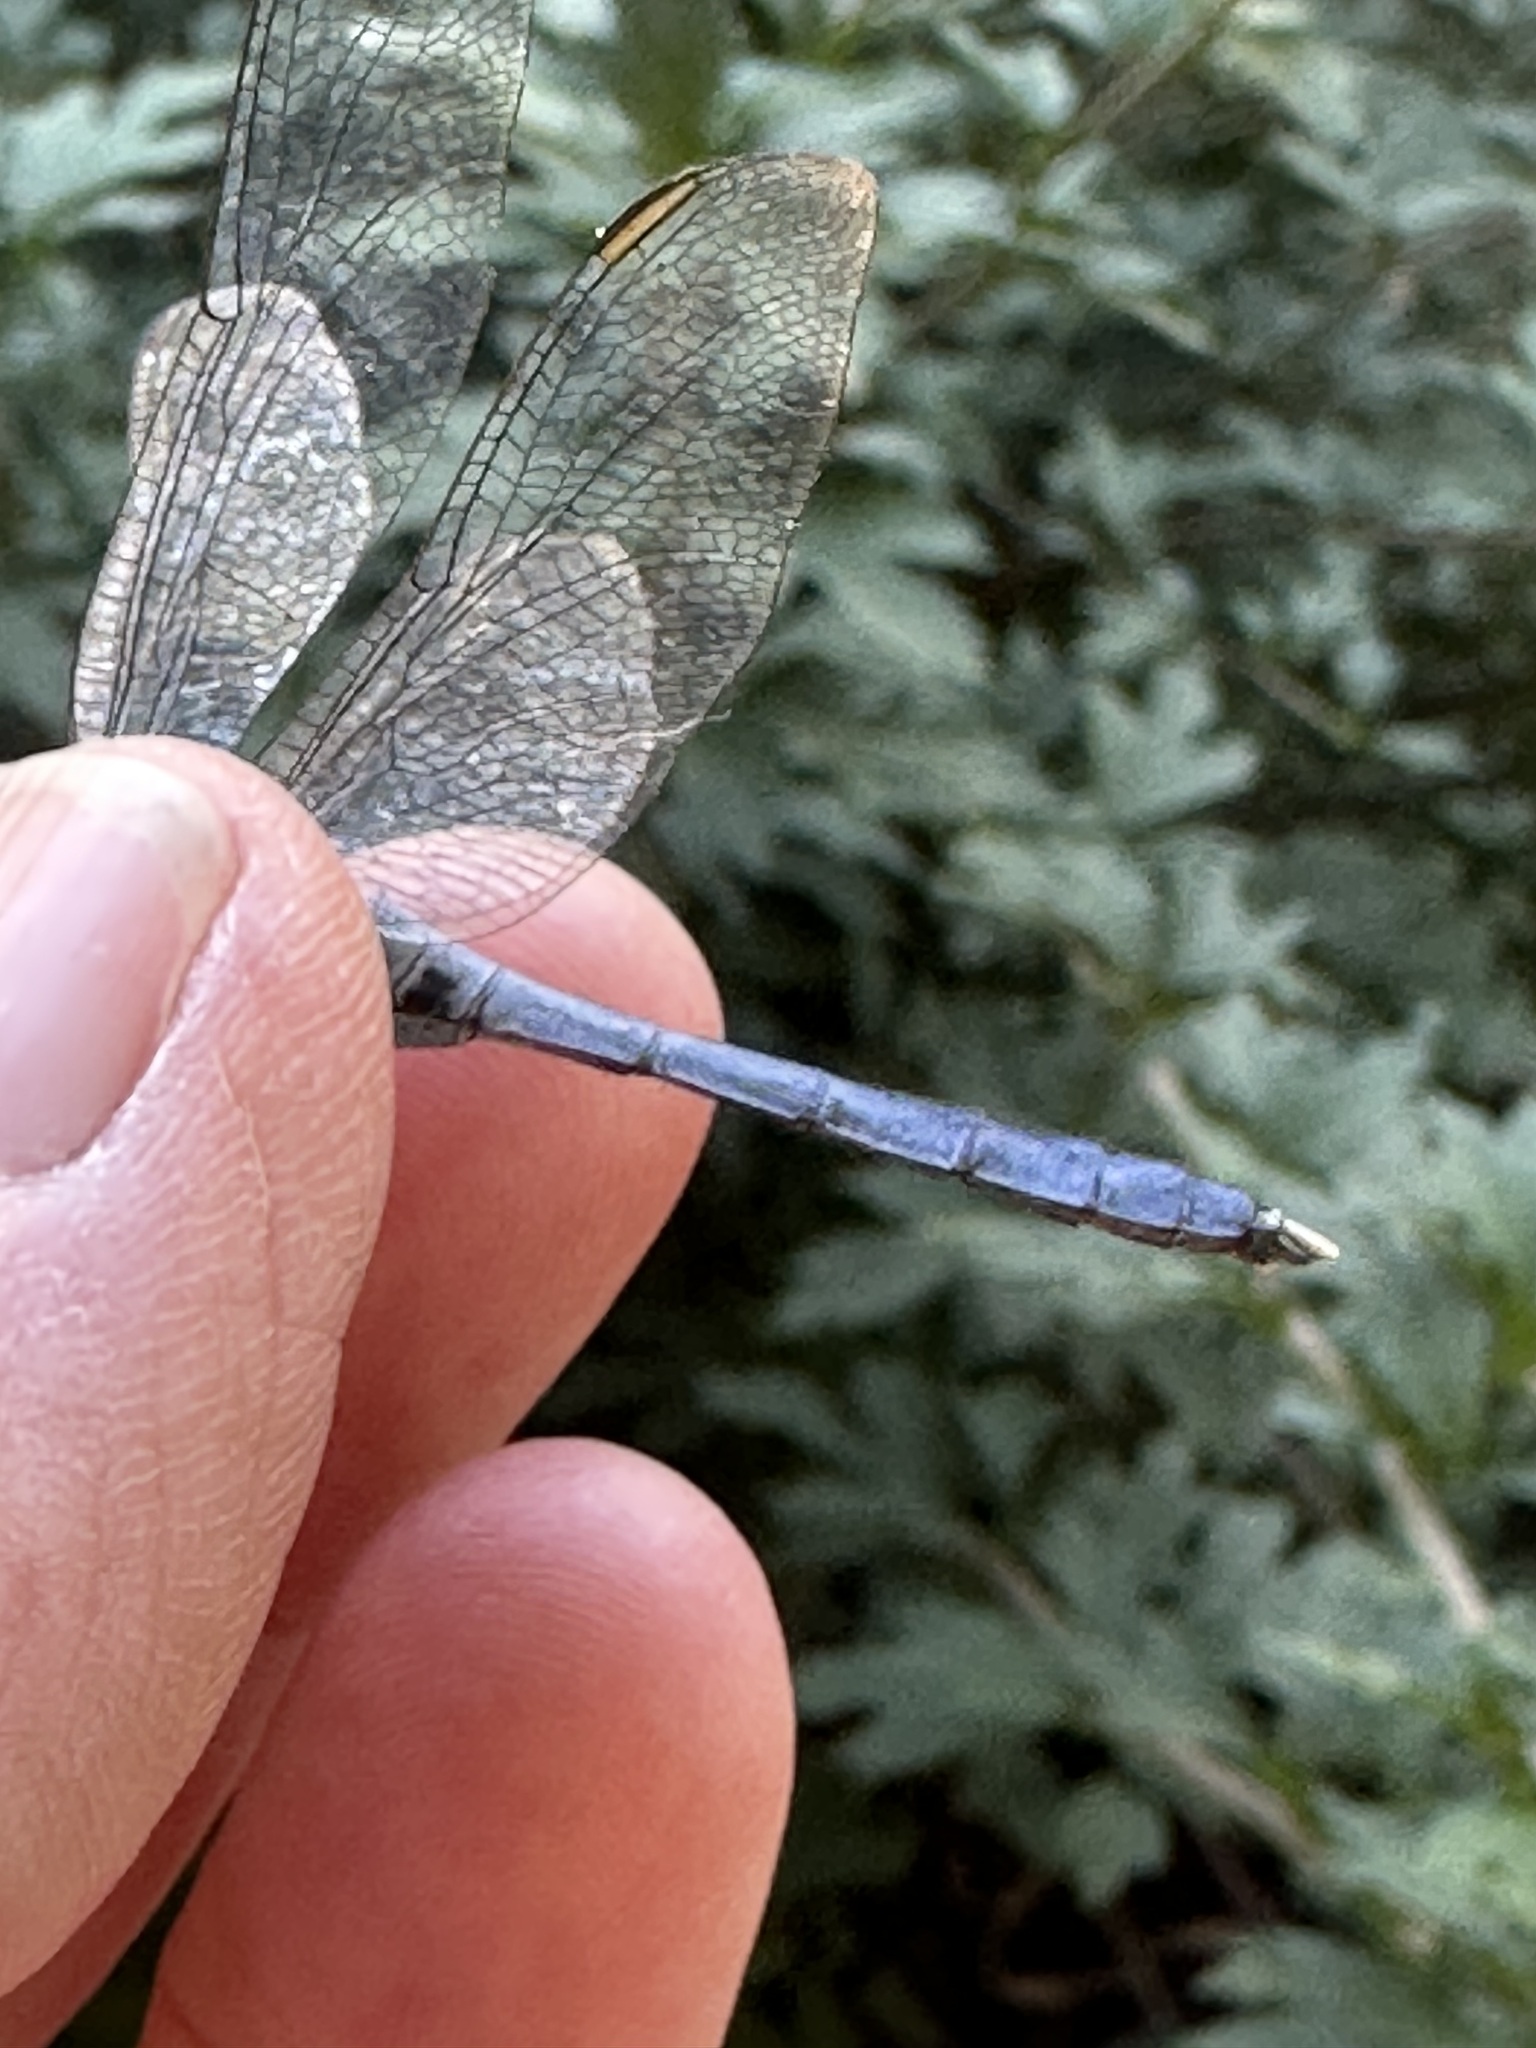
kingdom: Animalia
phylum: Arthropoda
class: Insecta
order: Odonata
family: Libellulidae
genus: Erythemis
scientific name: Erythemis simplicicollis
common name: Eastern pondhawk
